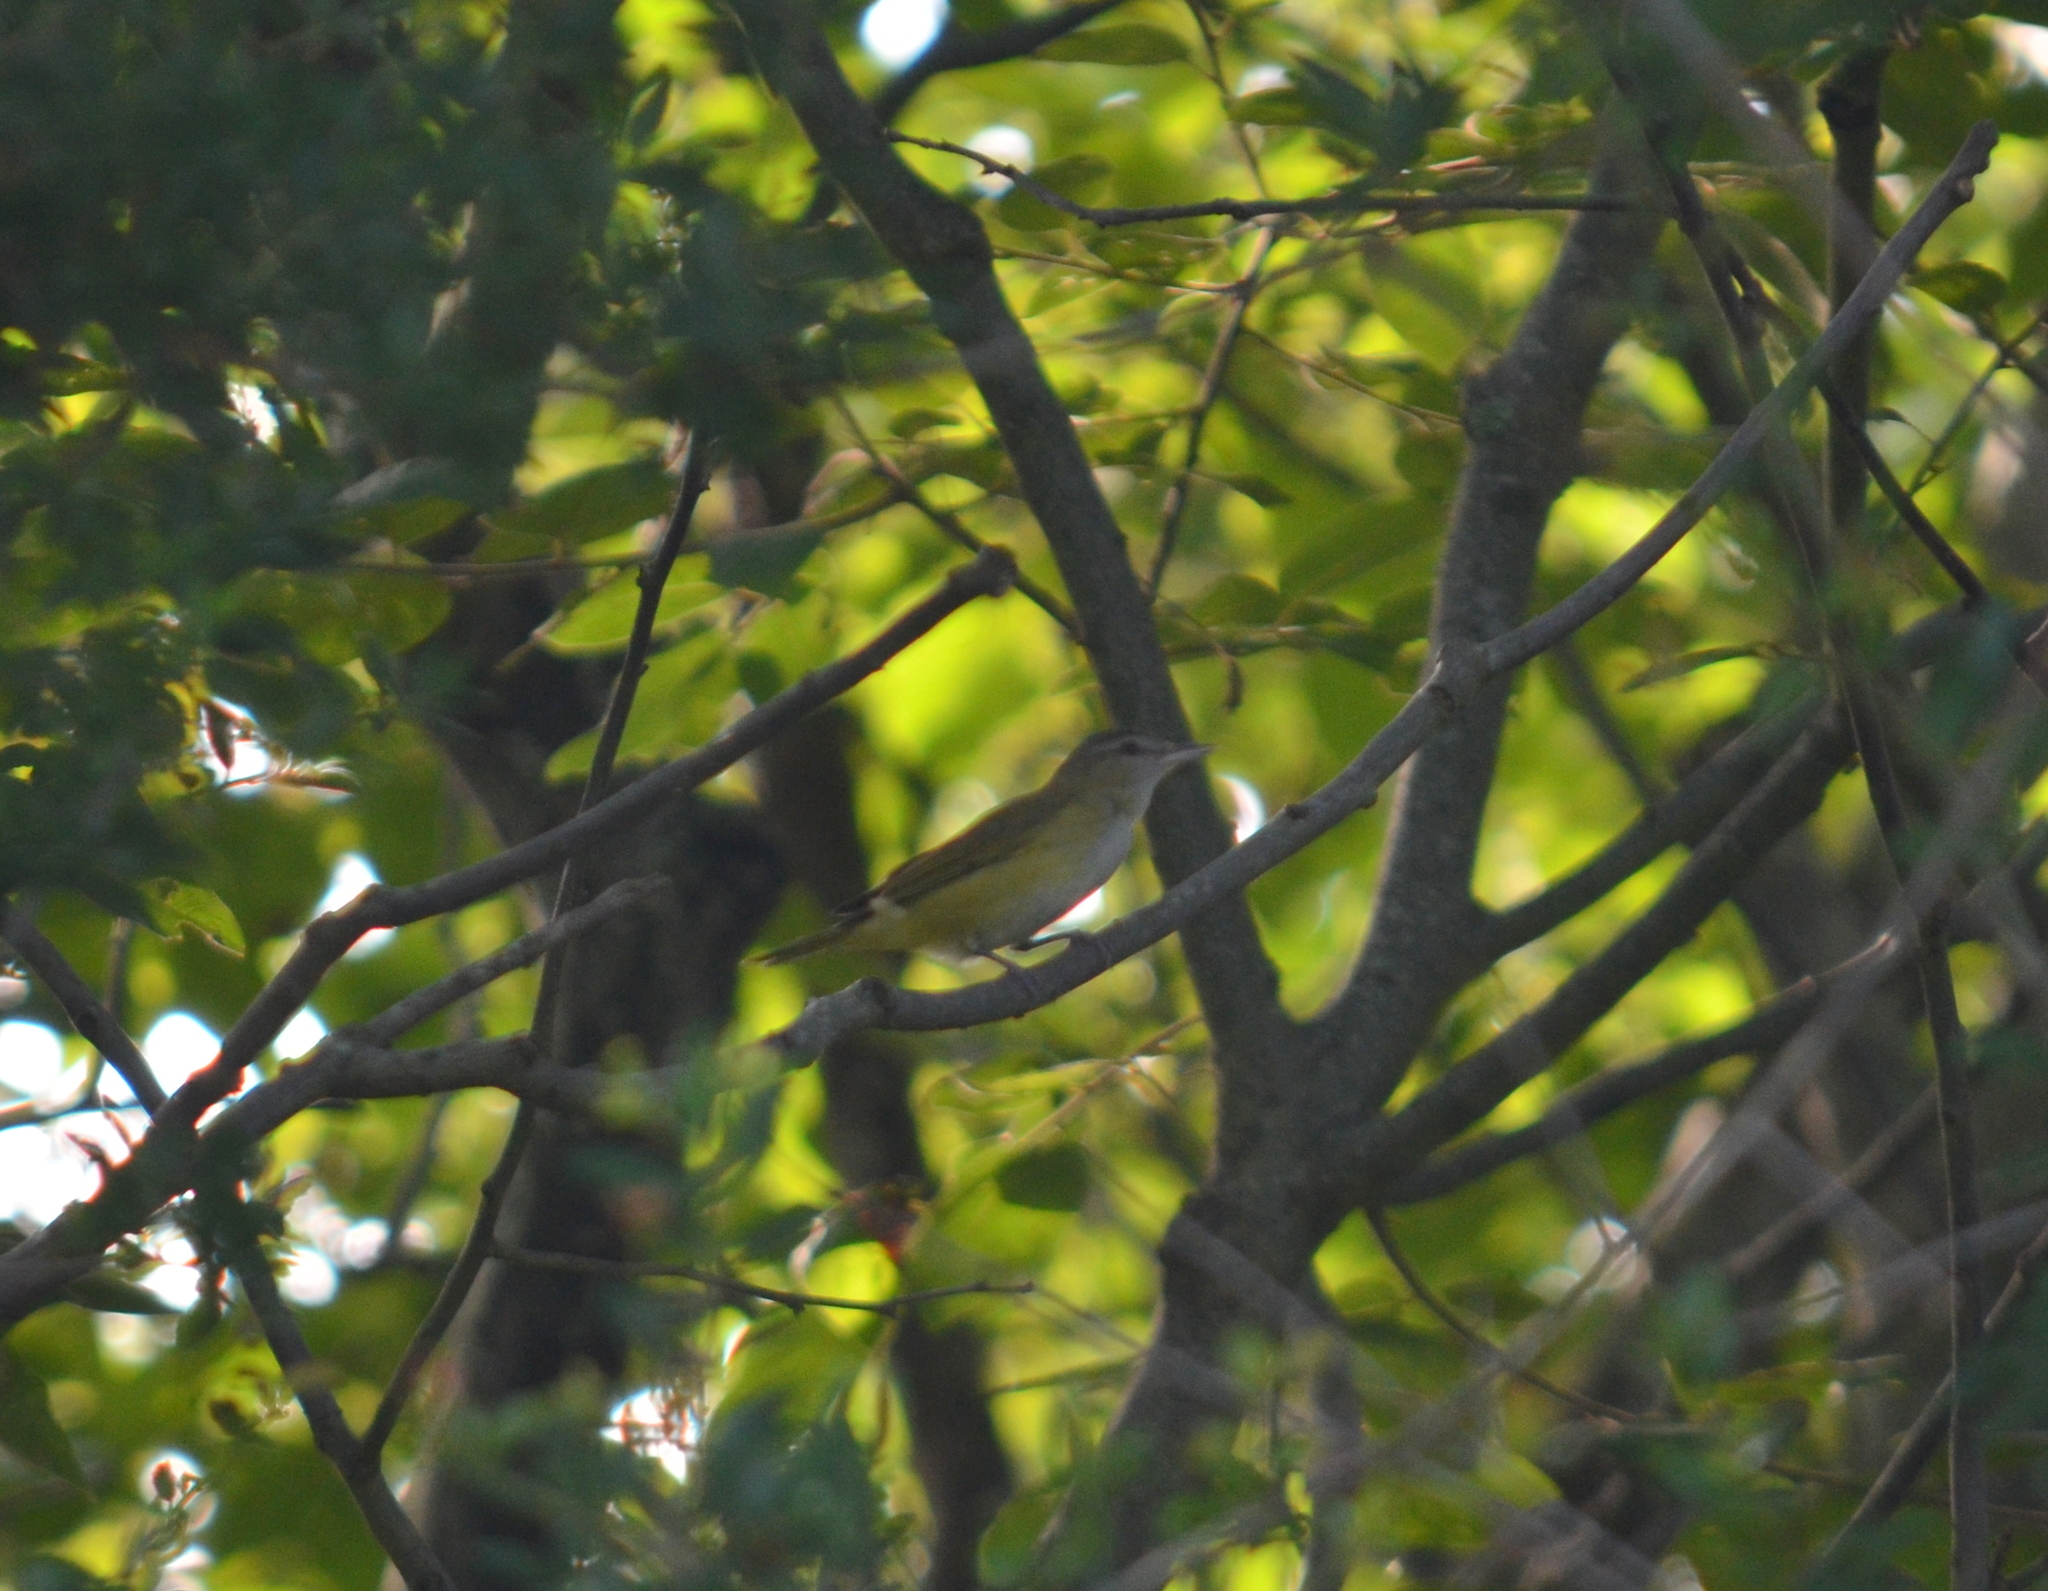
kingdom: Animalia
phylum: Chordata
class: Aves
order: Passeriformes
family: Vireonidae
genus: Vireo
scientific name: Vireo flavoviridis
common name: Yellow-green vireo
